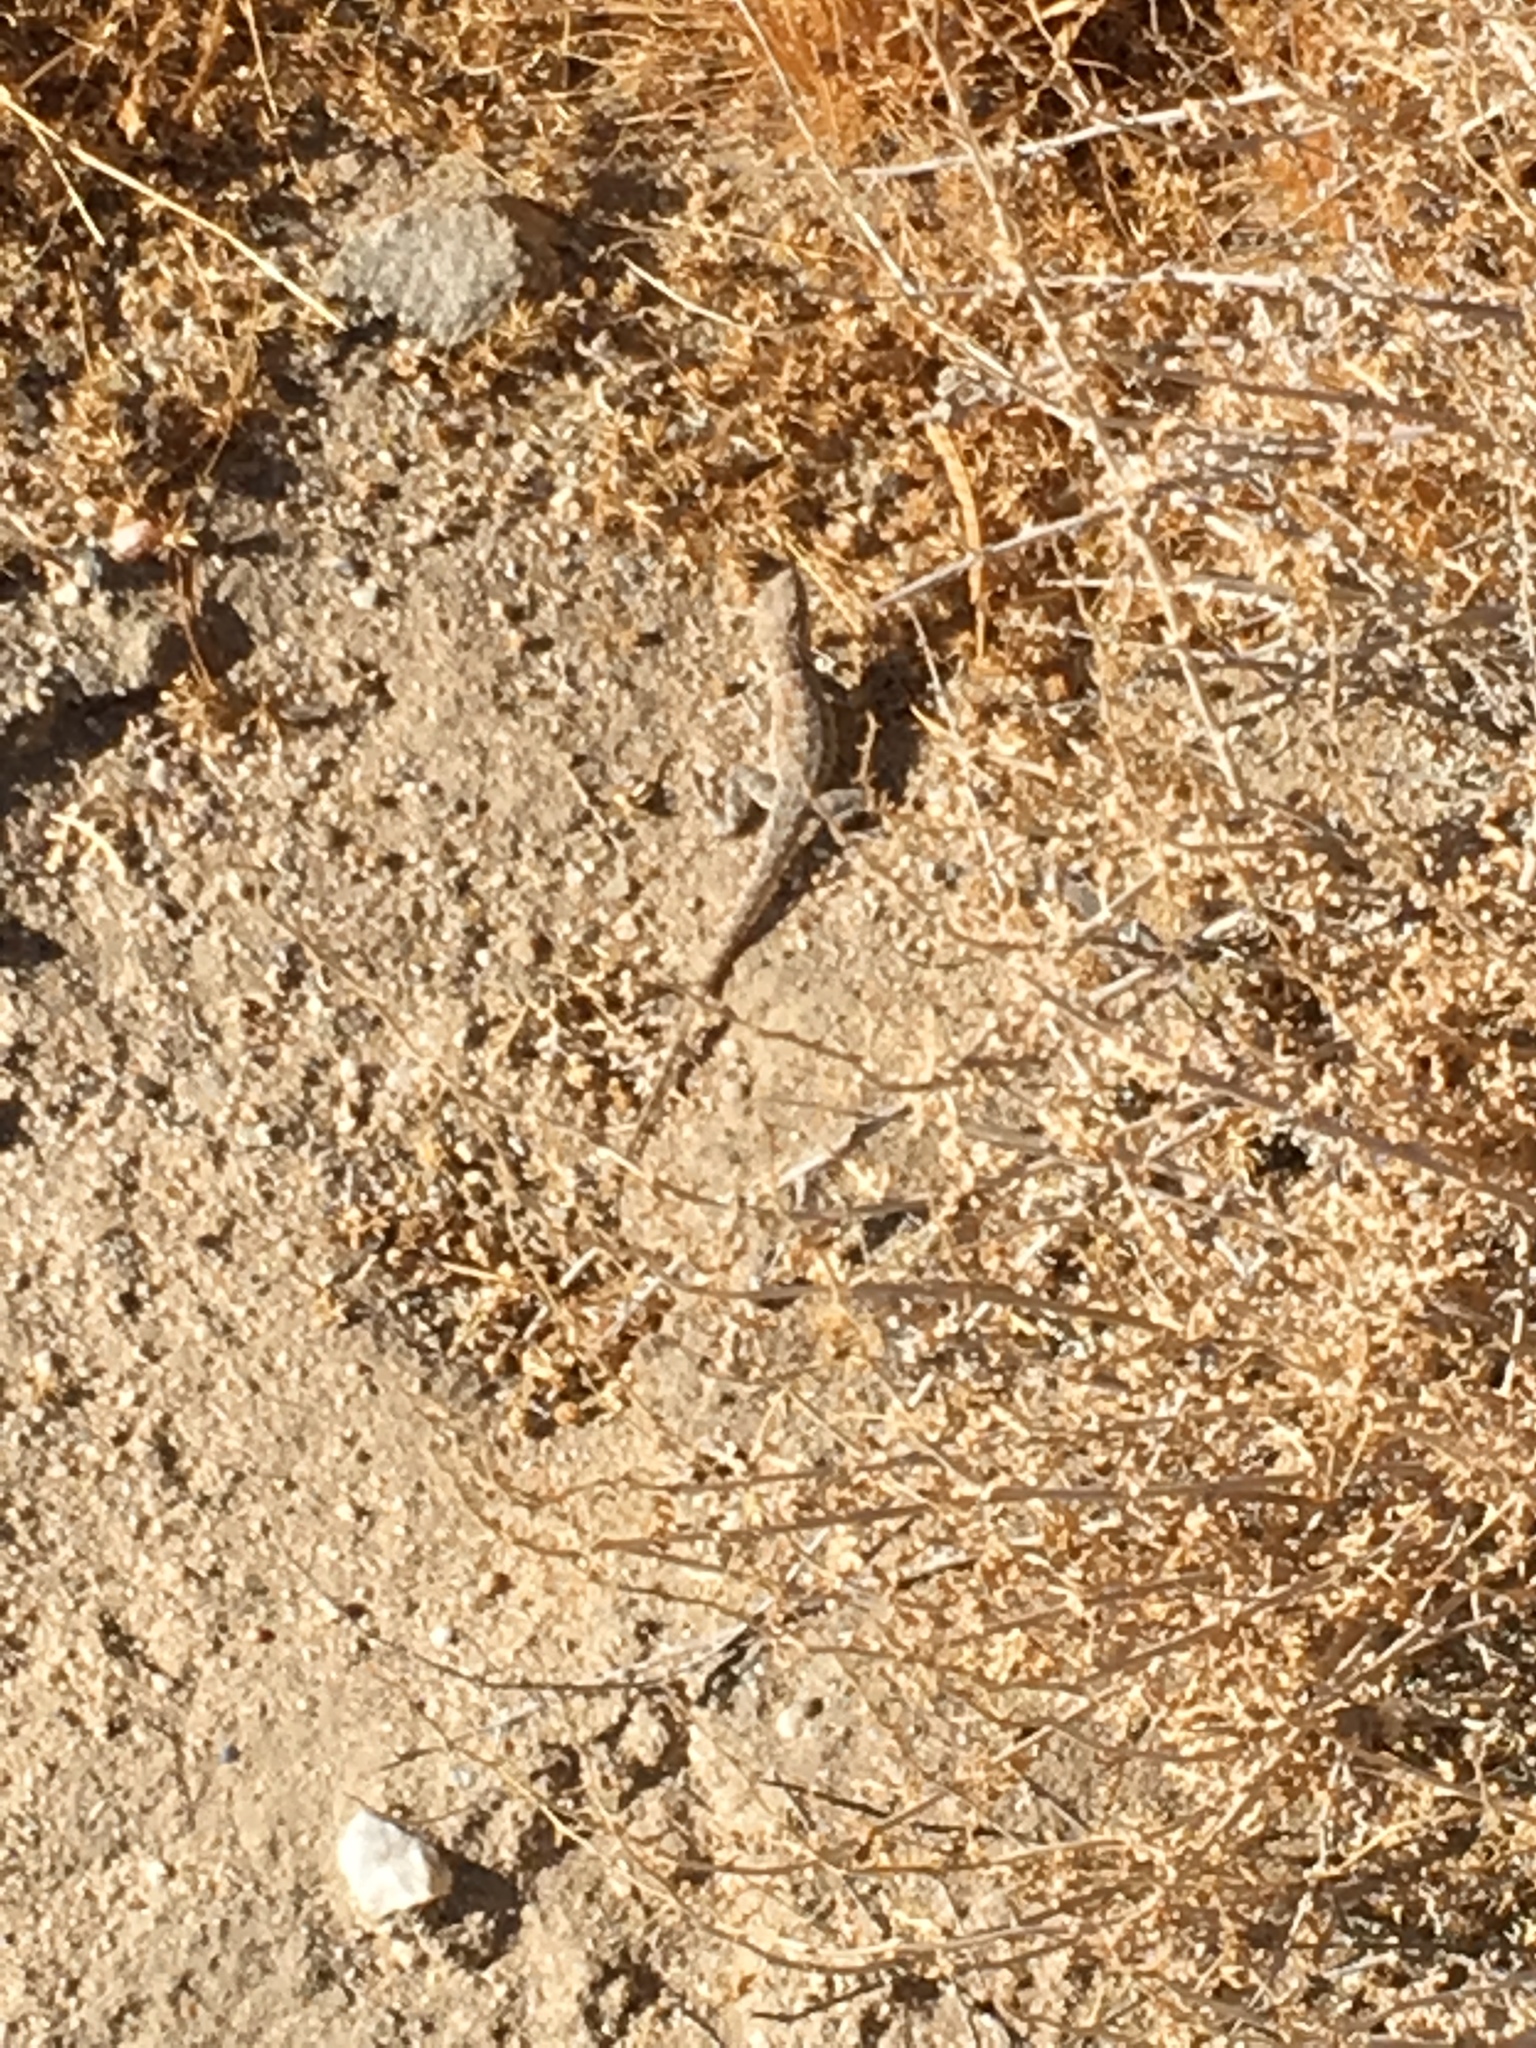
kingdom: Animalia
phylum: Chordata
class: Squamata
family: Phrynosomatidae
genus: Uta
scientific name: Uta stansburiana
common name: Side-blotched lizard
